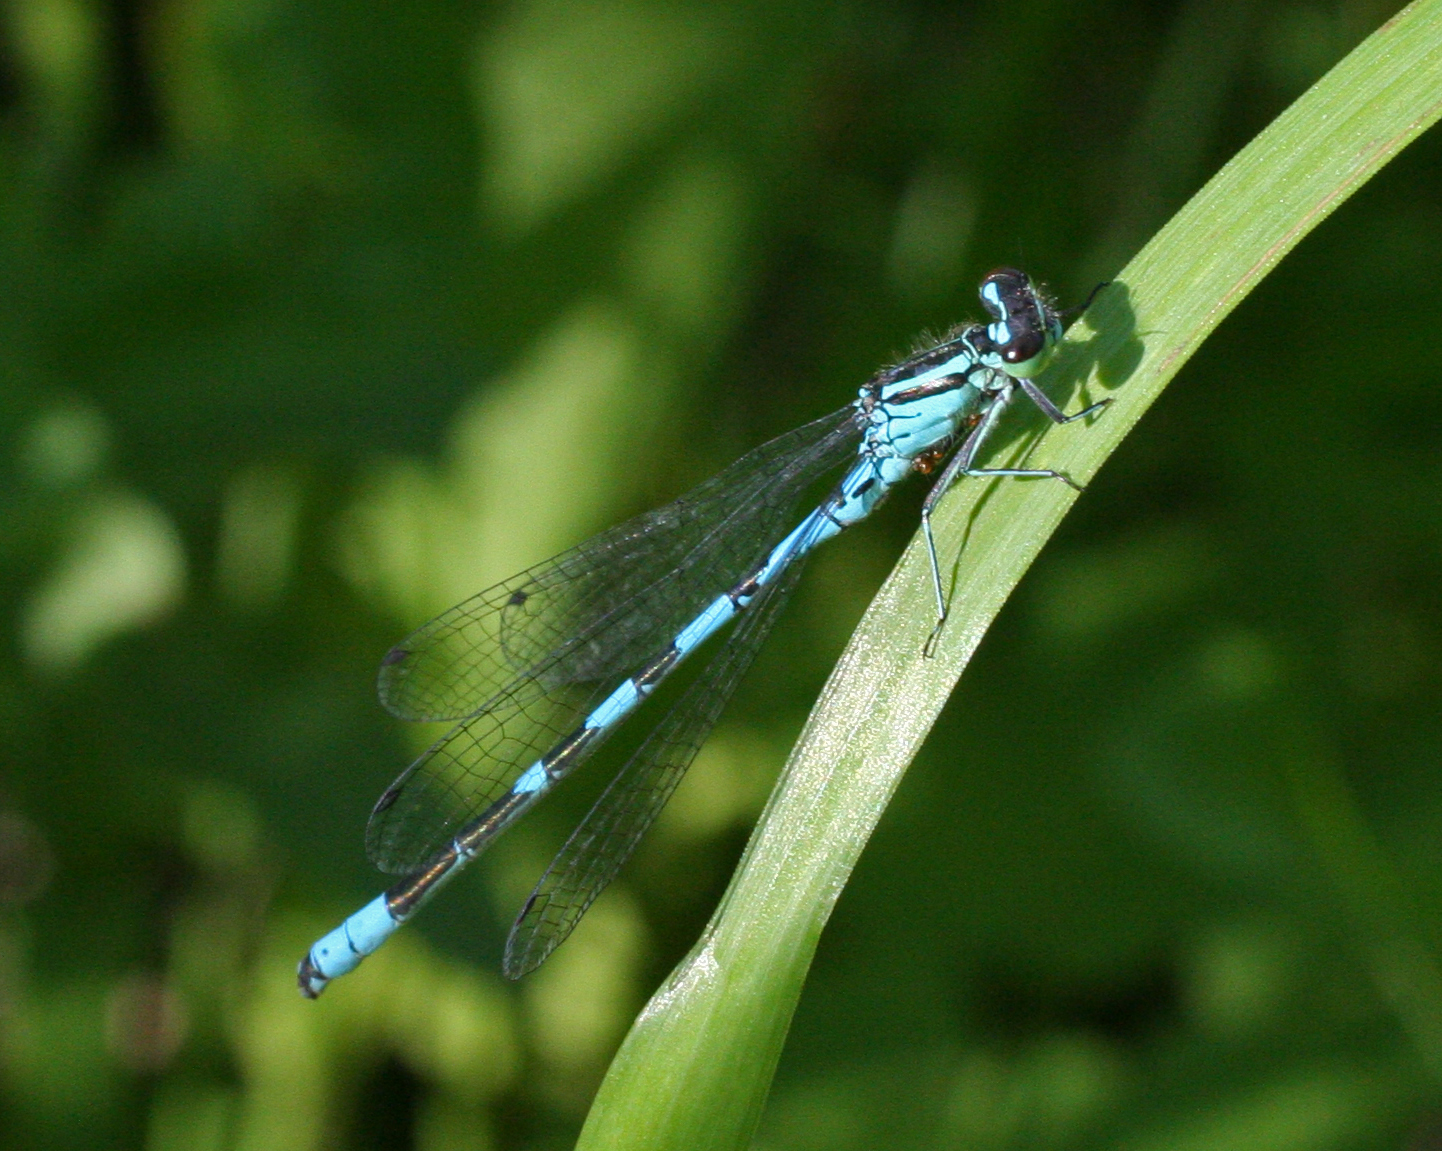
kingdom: Animalia
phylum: Arthropoda
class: Insecta
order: Odonata
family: Coenagrionidae
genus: Coenagrion
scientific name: Coenagrion hastulatum
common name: Spearhead bluet
